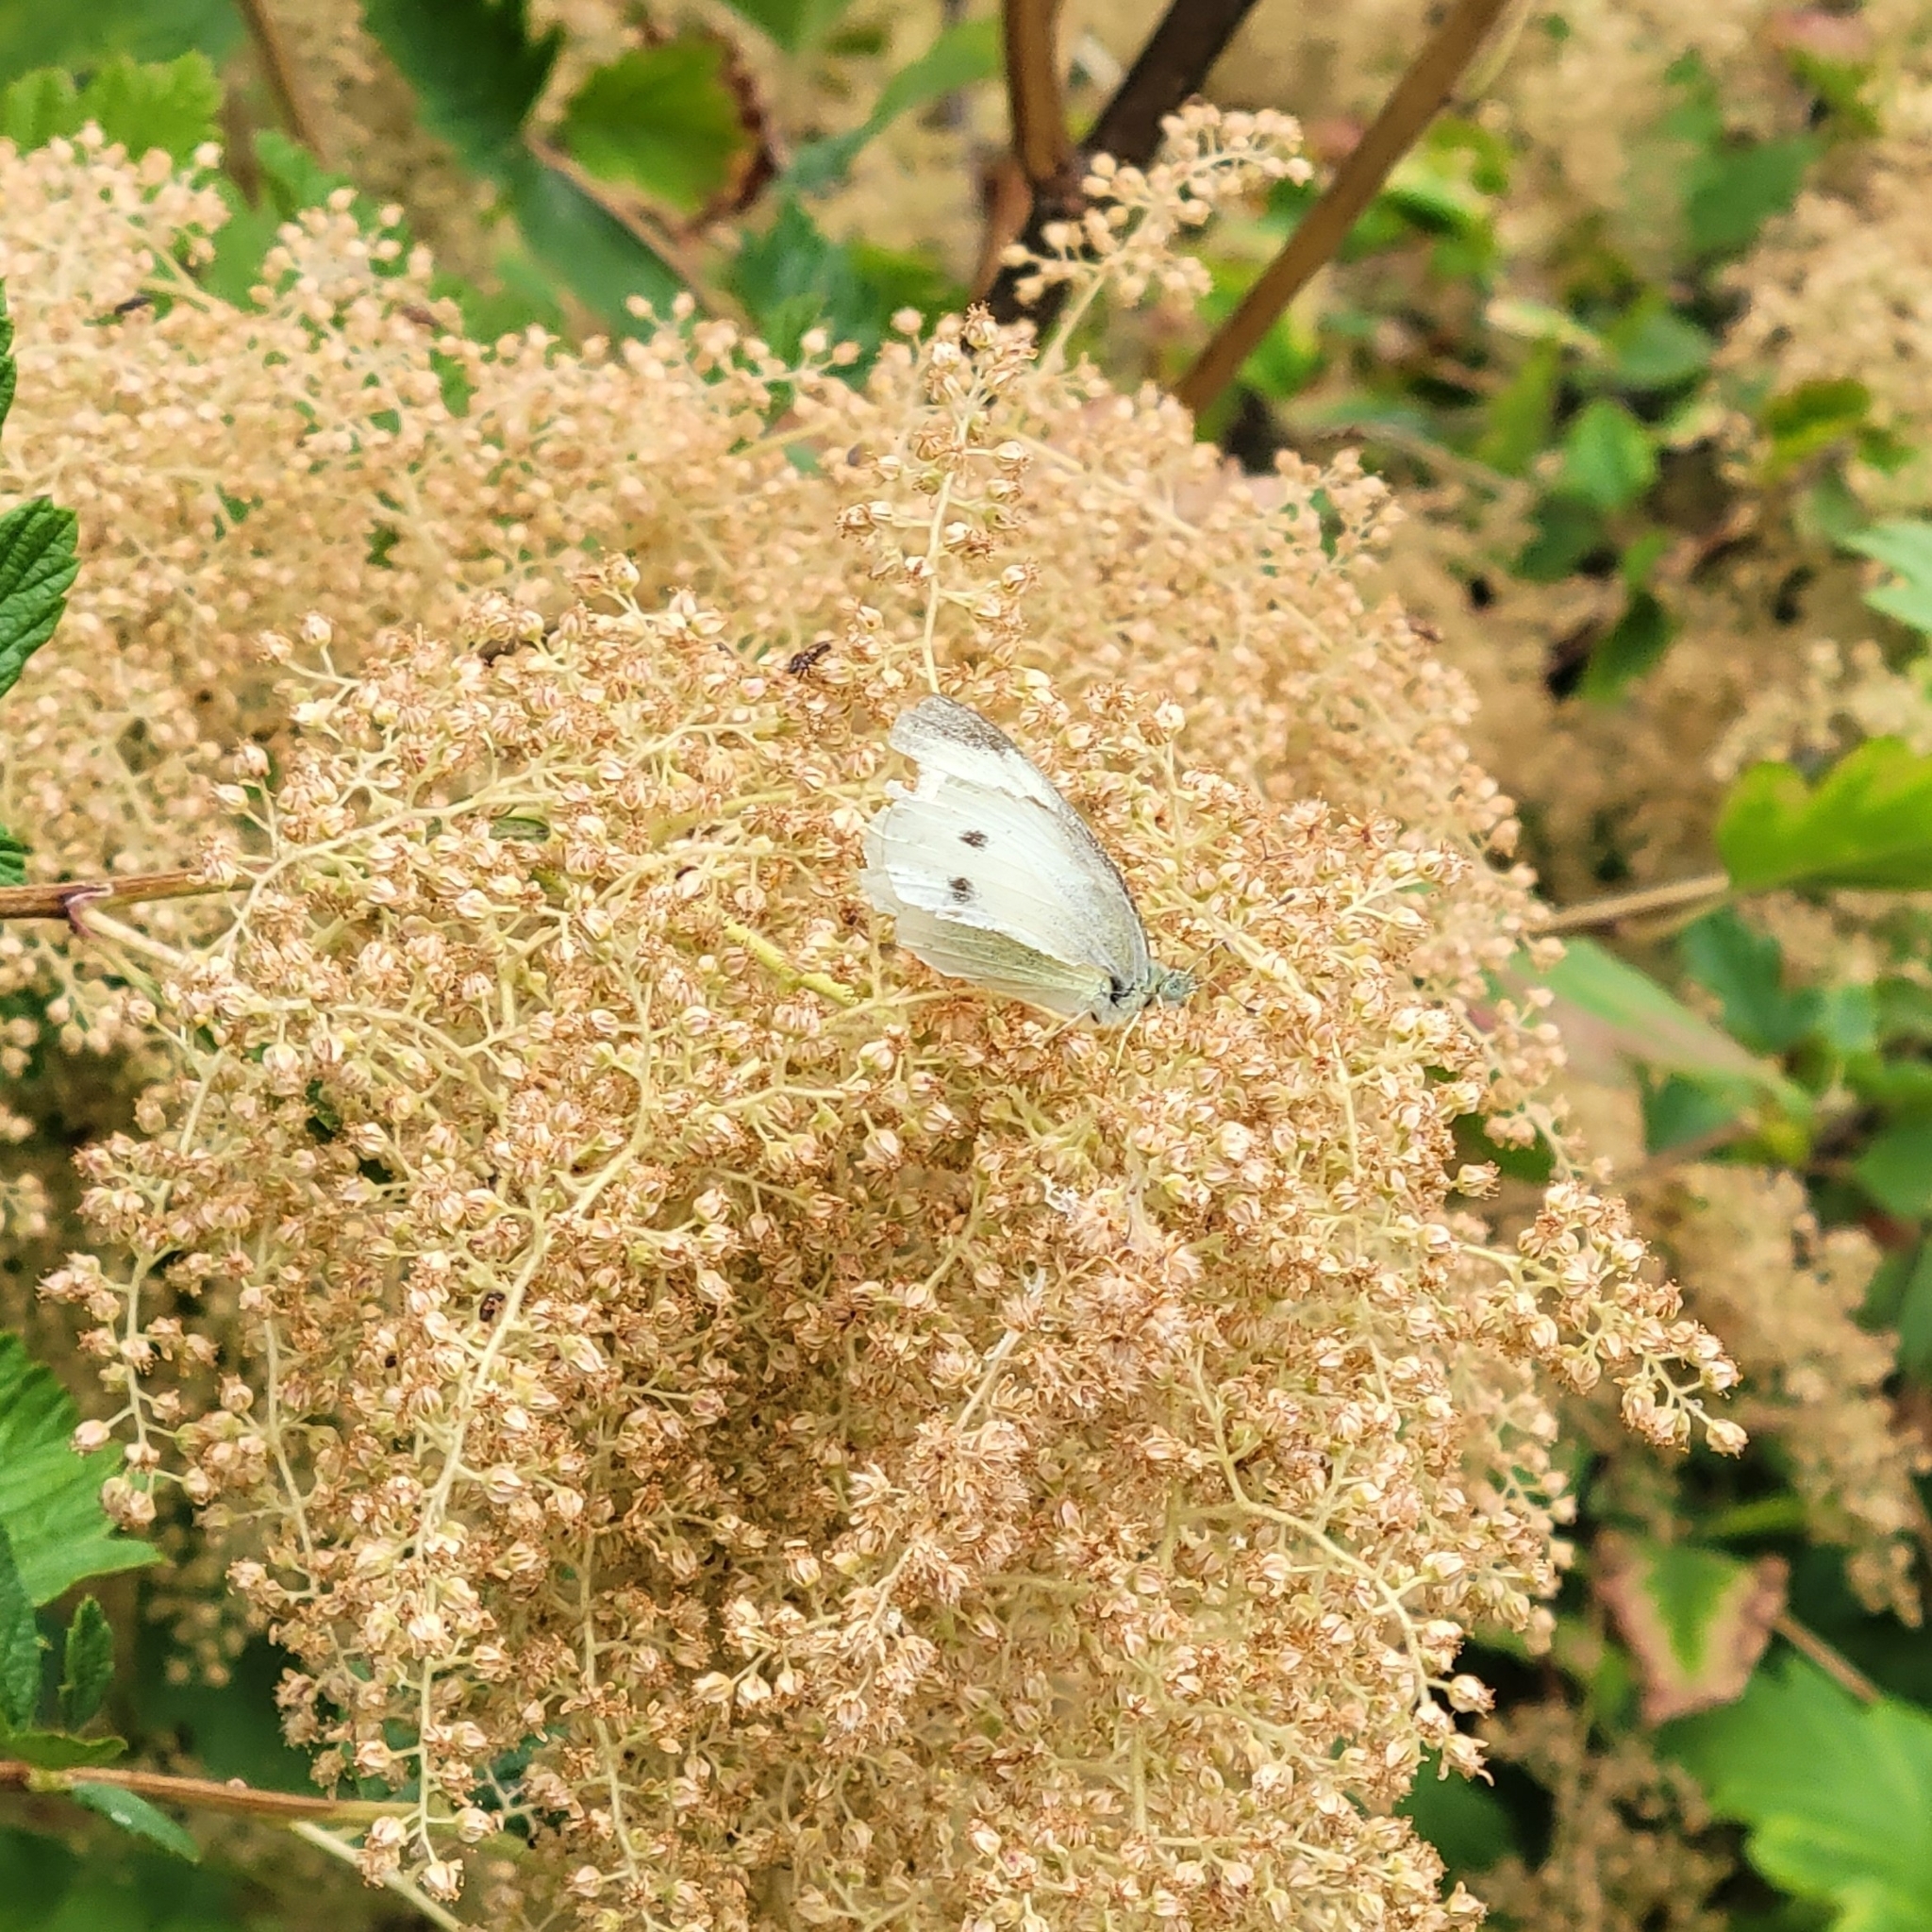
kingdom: Animalia
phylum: Arthropoda
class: Insecta
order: Lepidoptera
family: Pieridae
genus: Pieris
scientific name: Pieris rapae
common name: Small white
